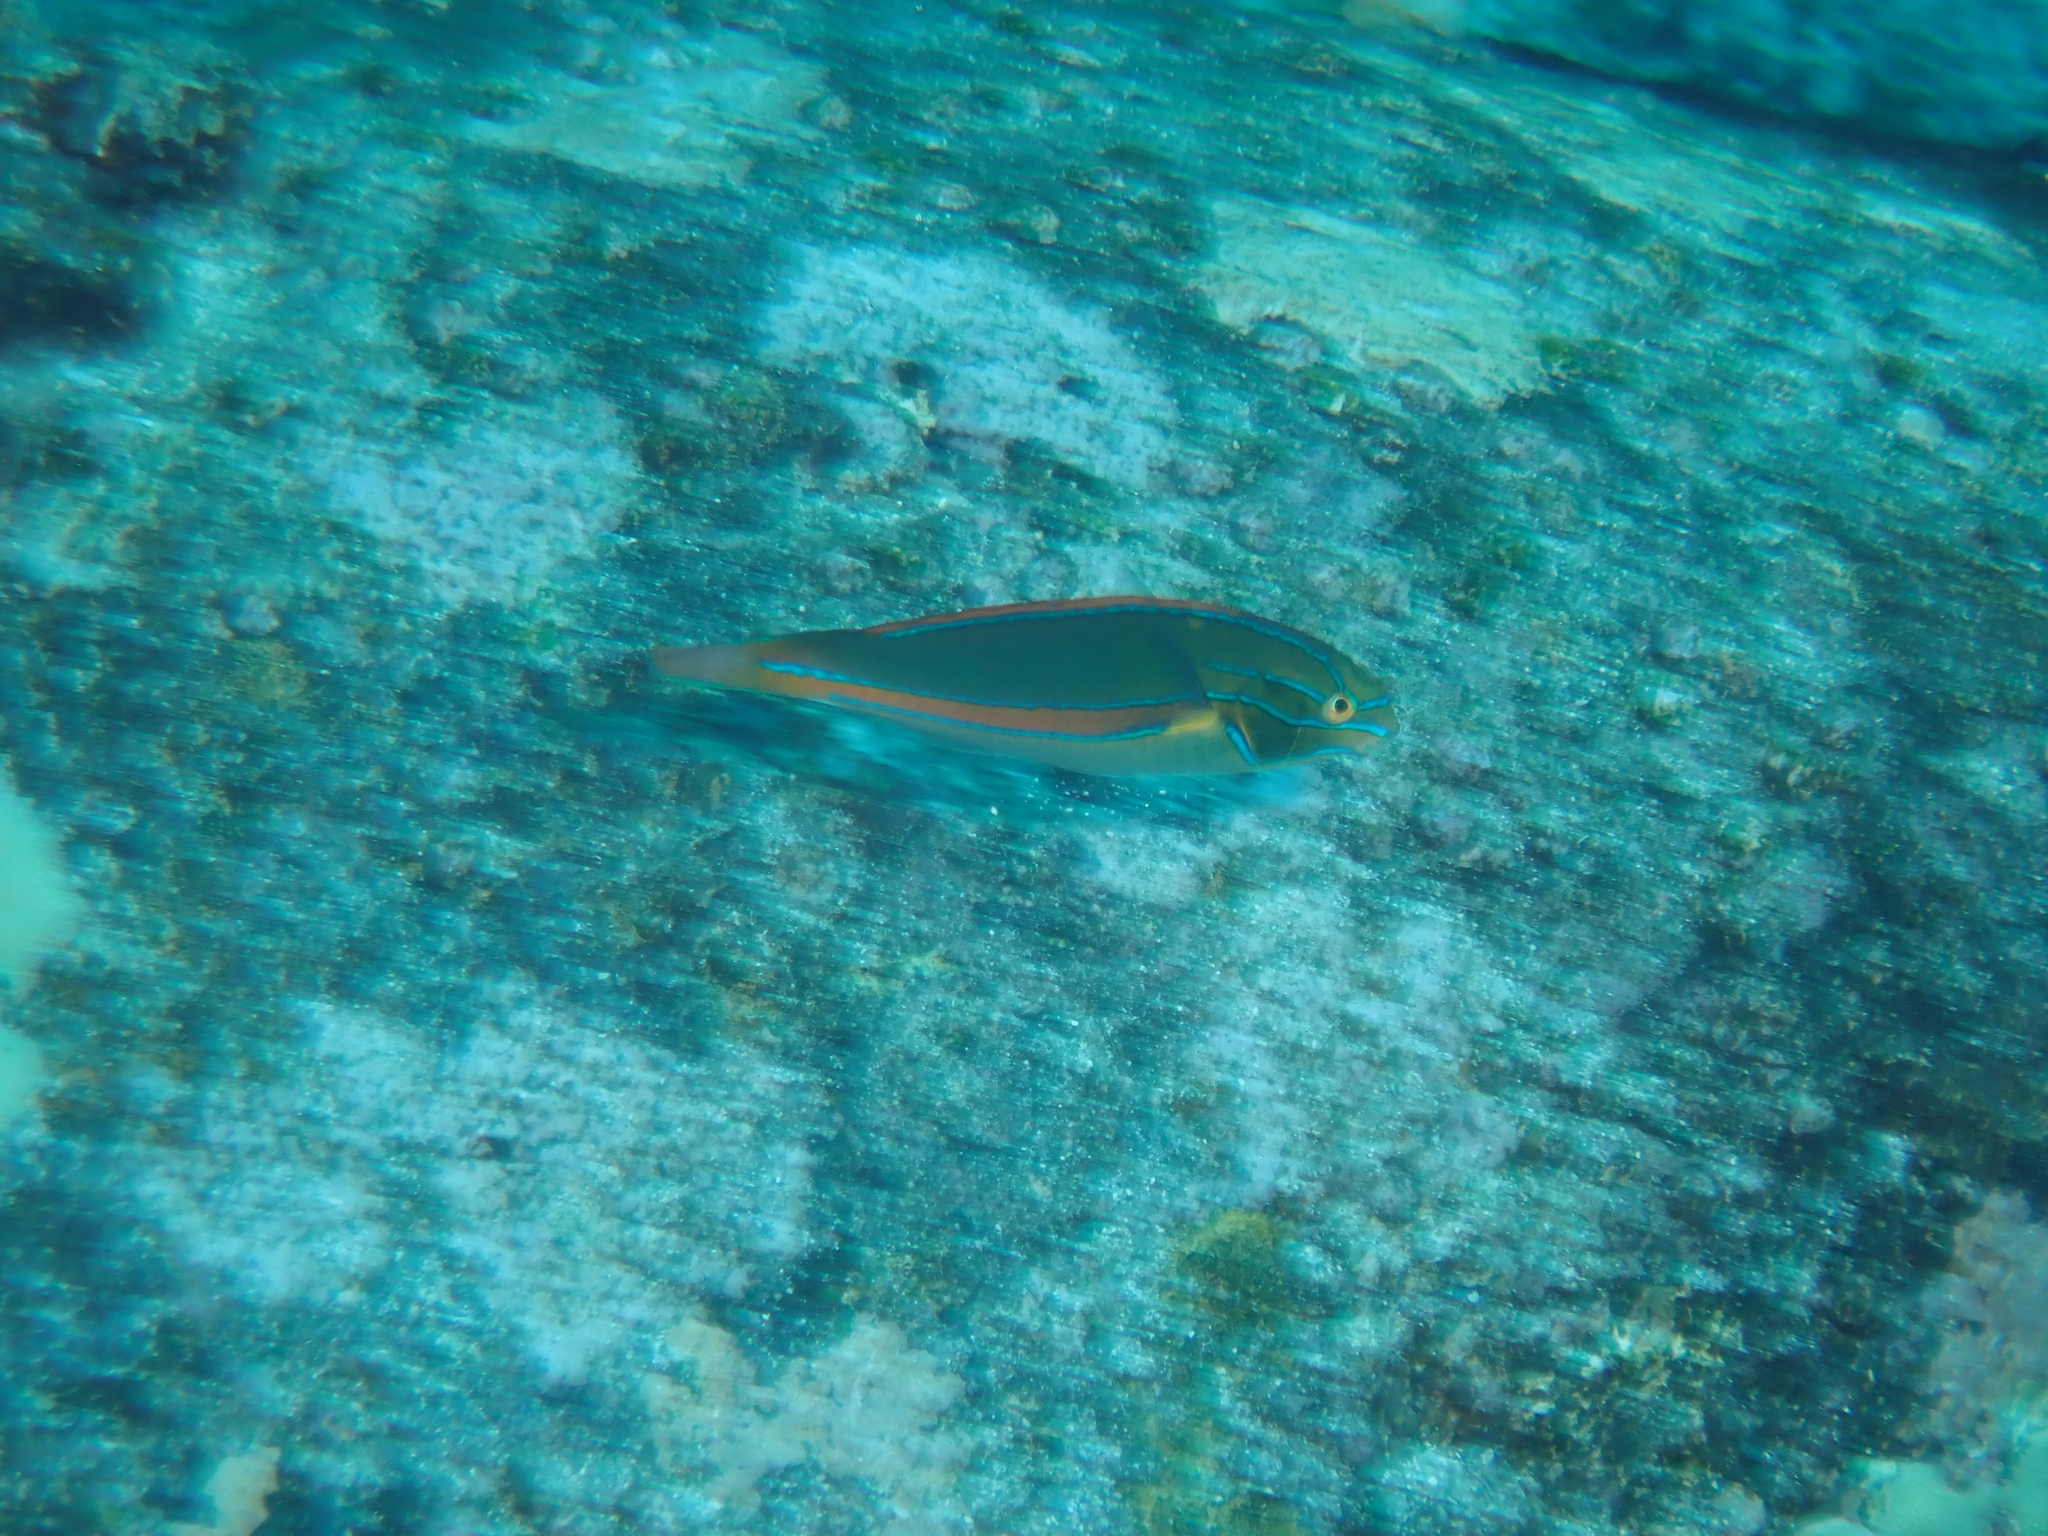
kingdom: Animalia
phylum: Chordata
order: Perciformes
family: Labridae
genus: Stethojulis
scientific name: Stethojulis balteata
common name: Belted wrasse
